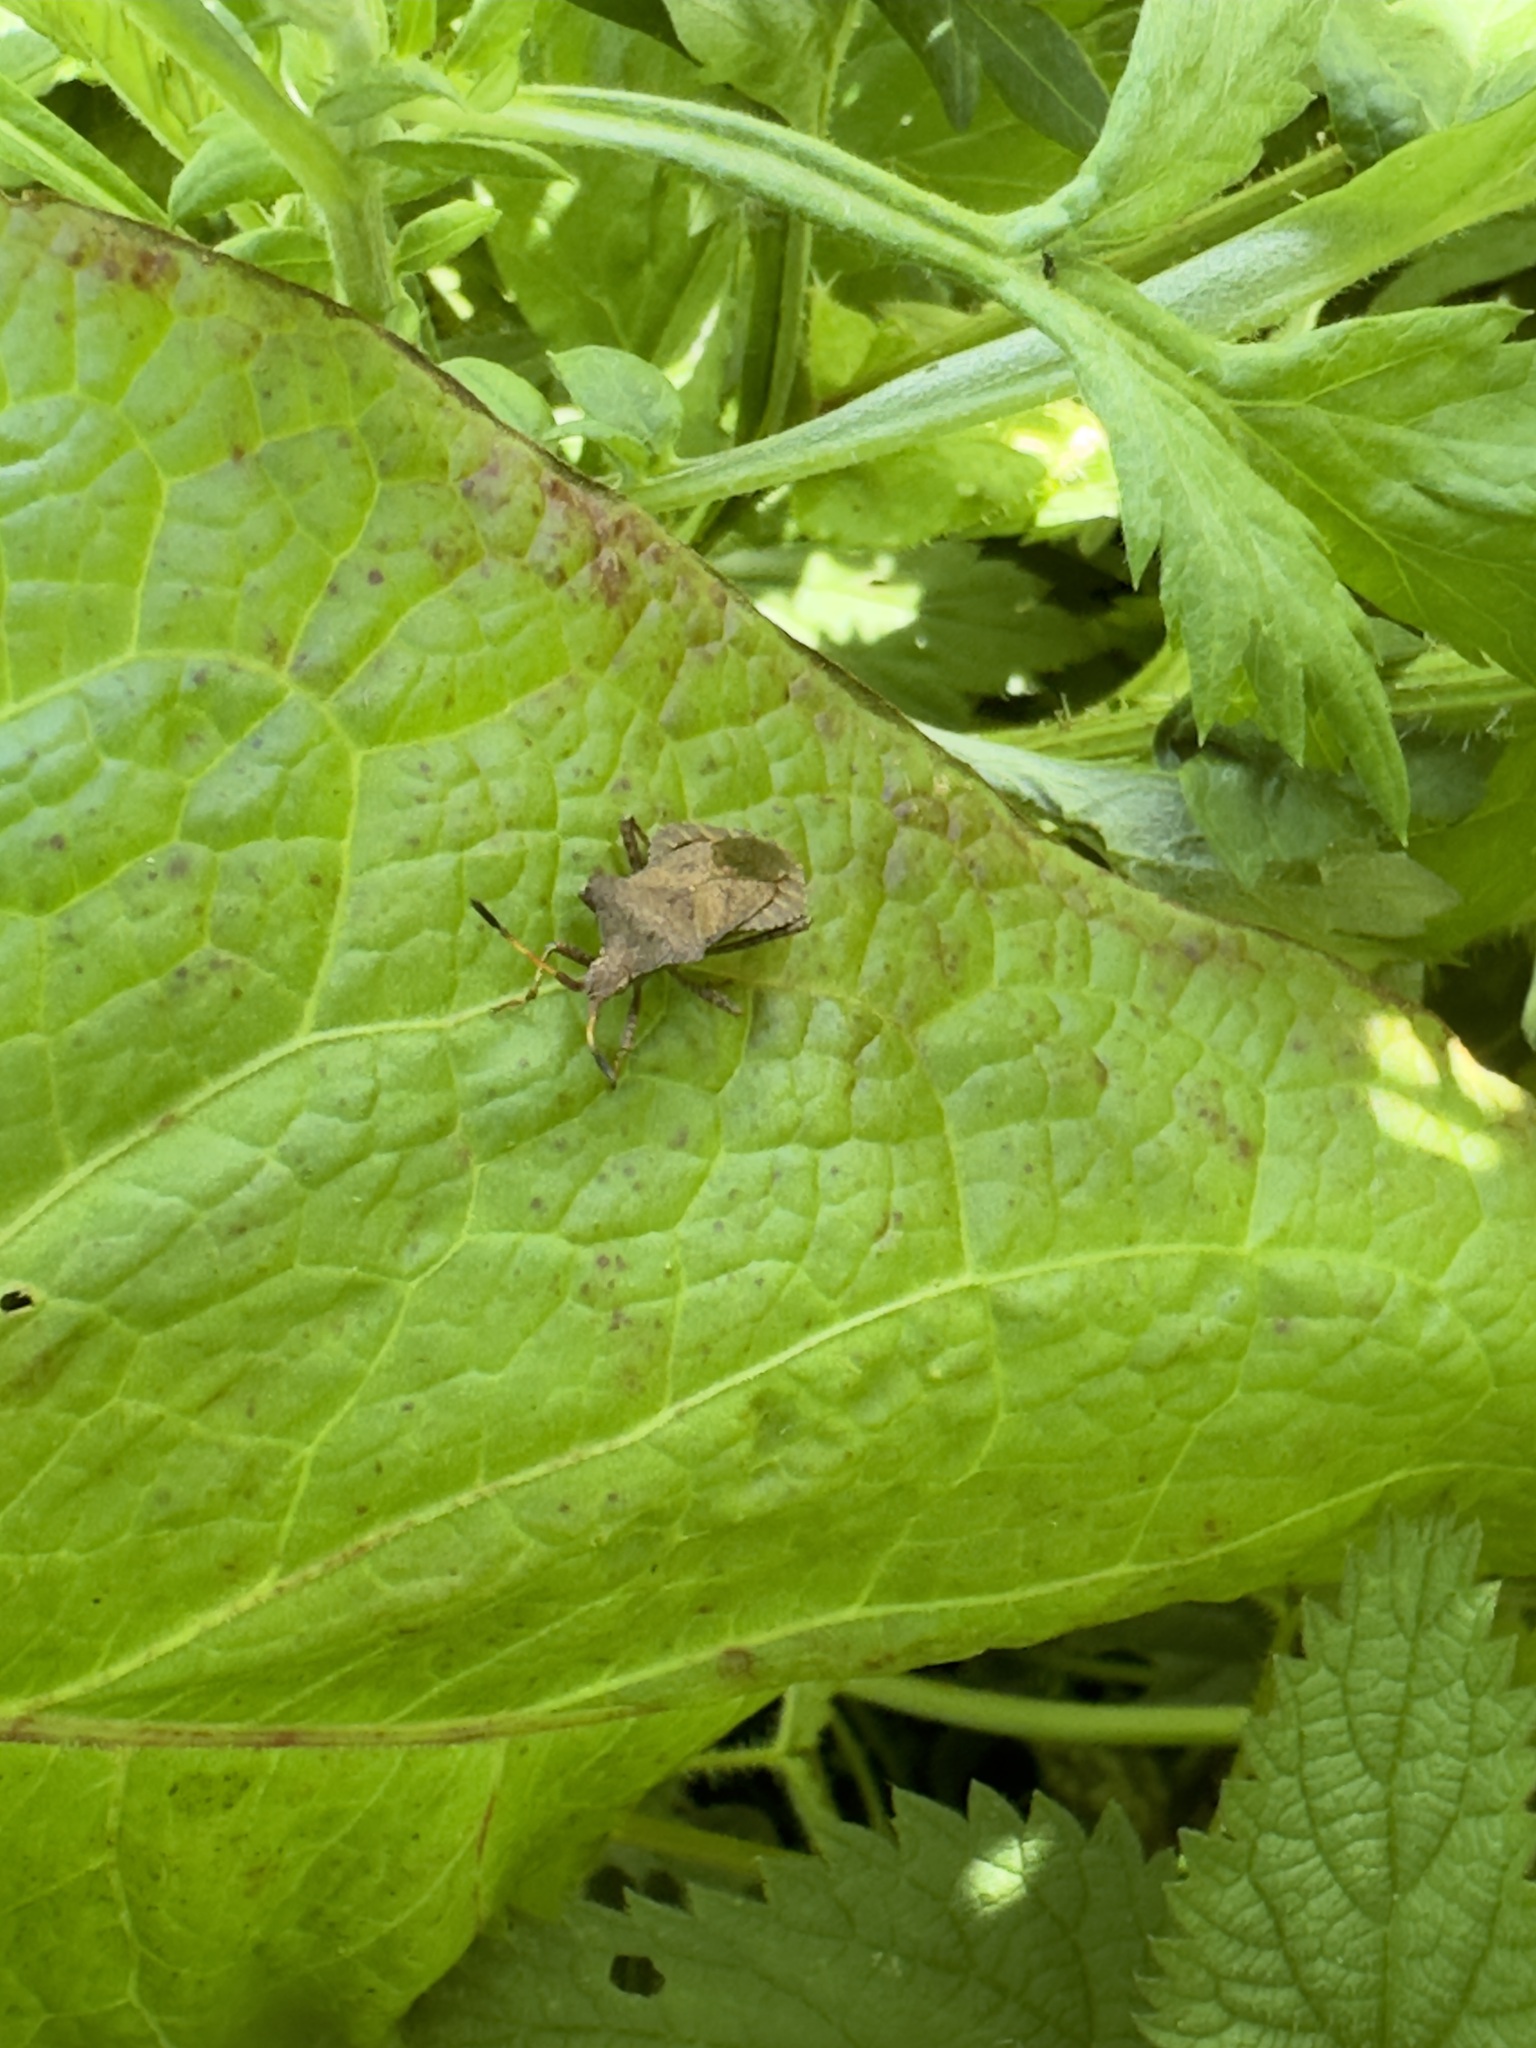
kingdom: Animalia
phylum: Arthropoda
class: Insecta
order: Hemiptera
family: Coreidae
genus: Coreus
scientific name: Coreus marginatus
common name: Dock bug
